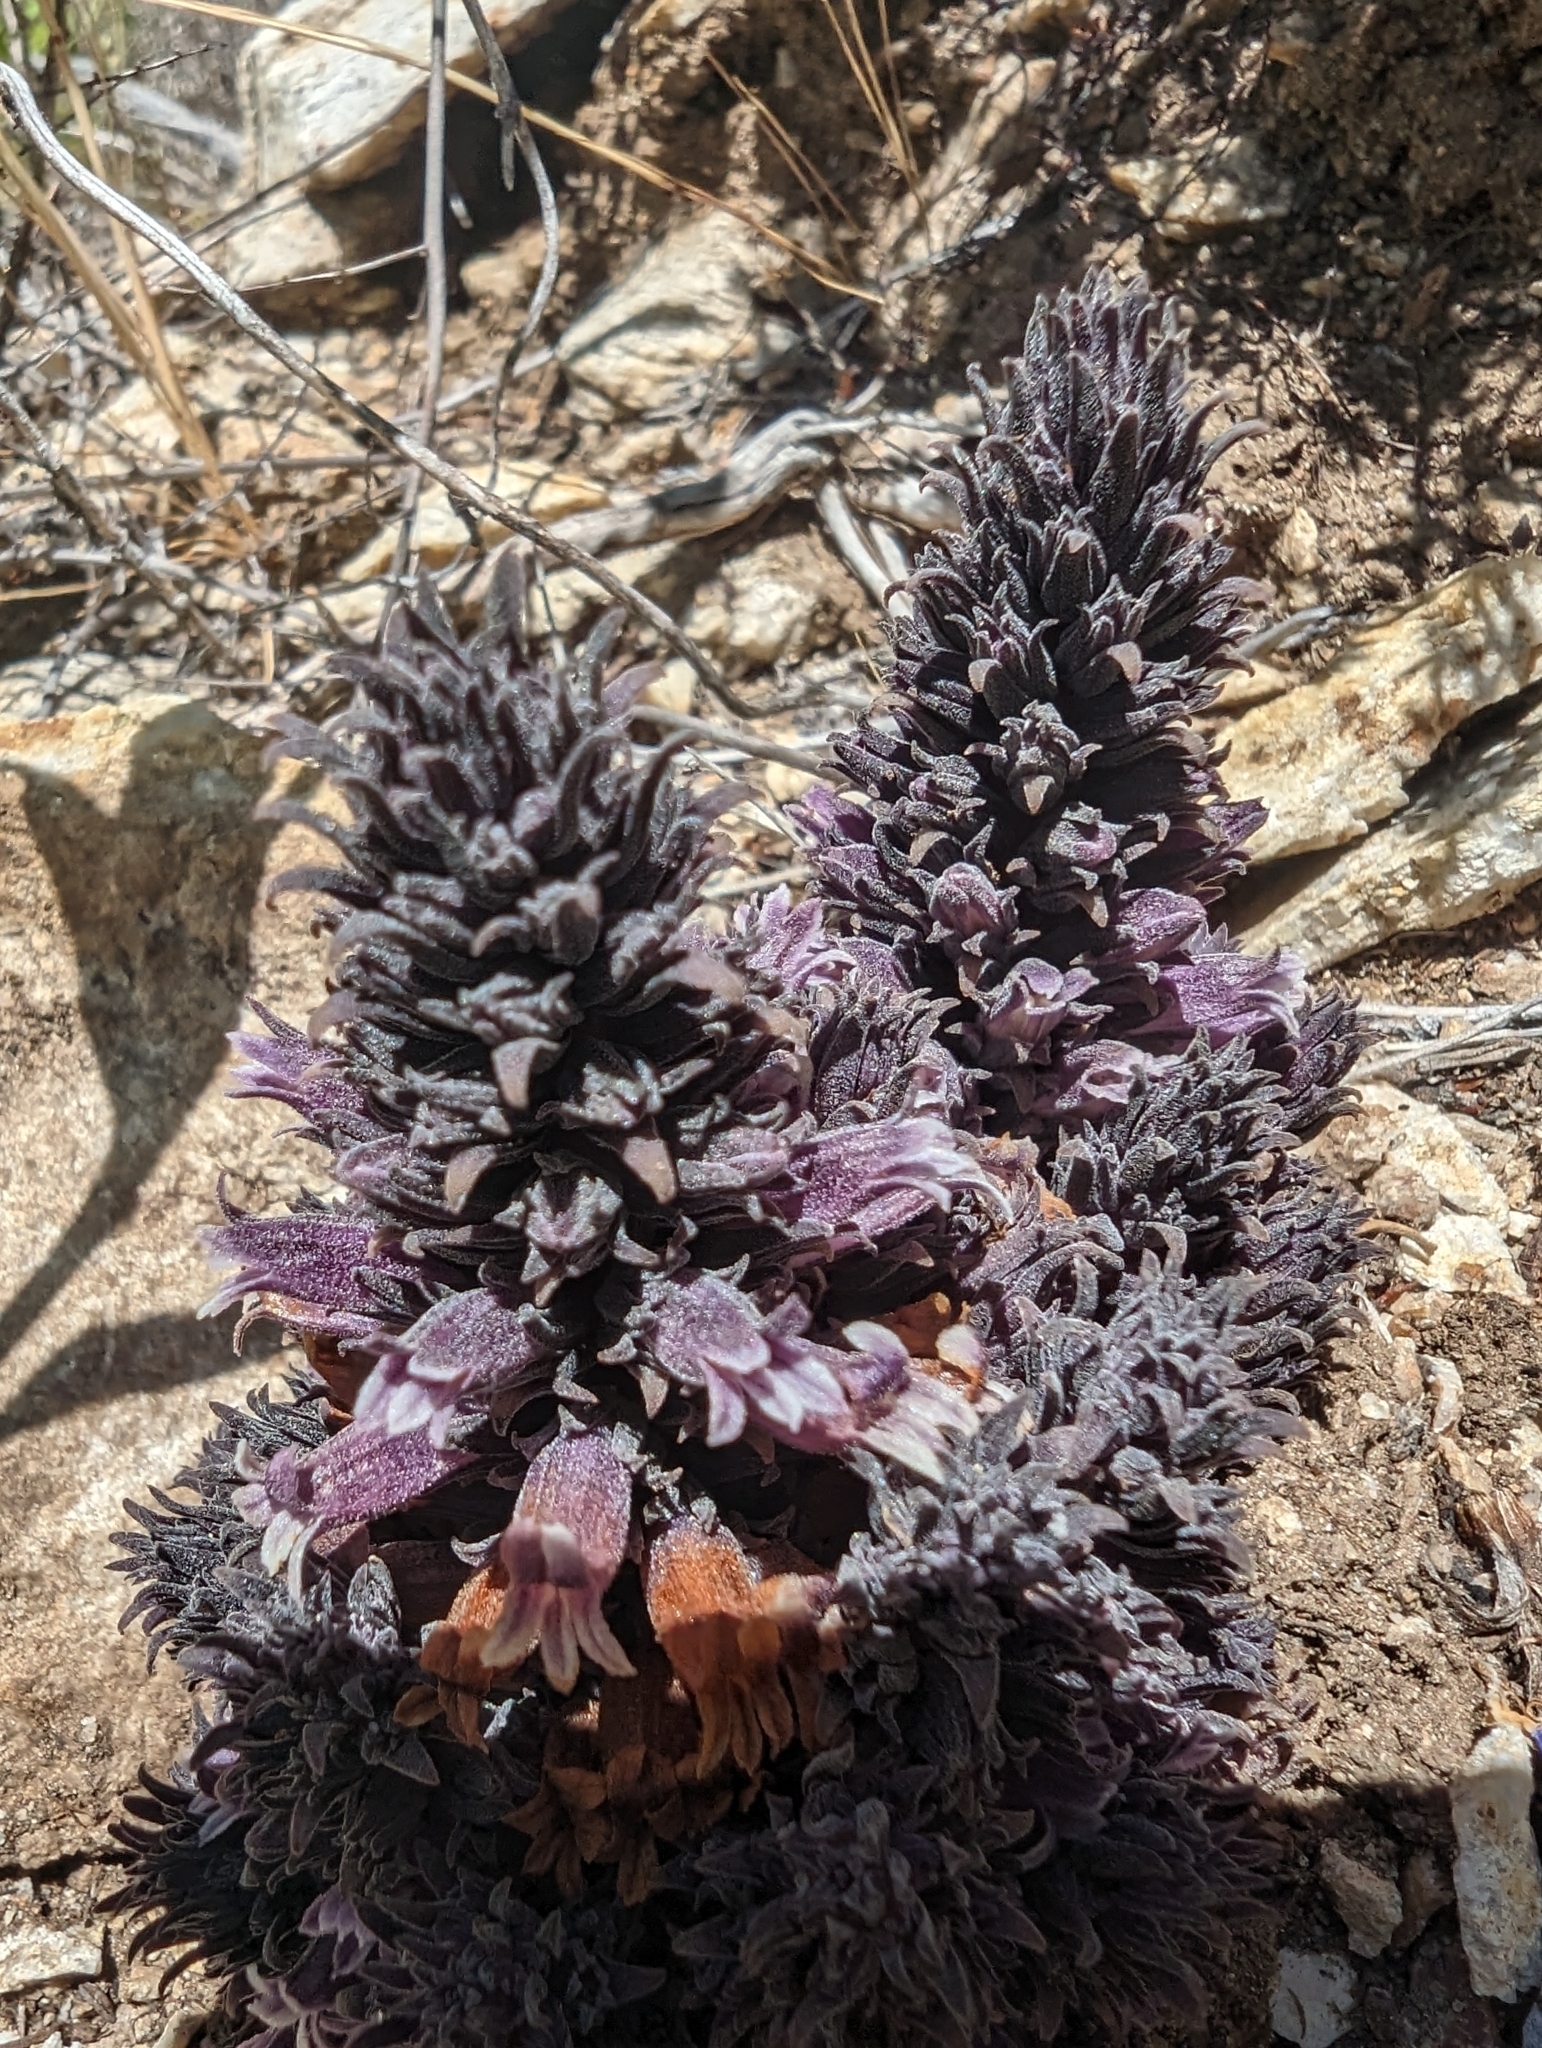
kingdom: Plantae
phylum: Tracheophyta
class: Magnoliopsida
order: Lamiales
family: Orobanchaceae
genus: Aphyllon
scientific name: Aphyllon tuberosum
